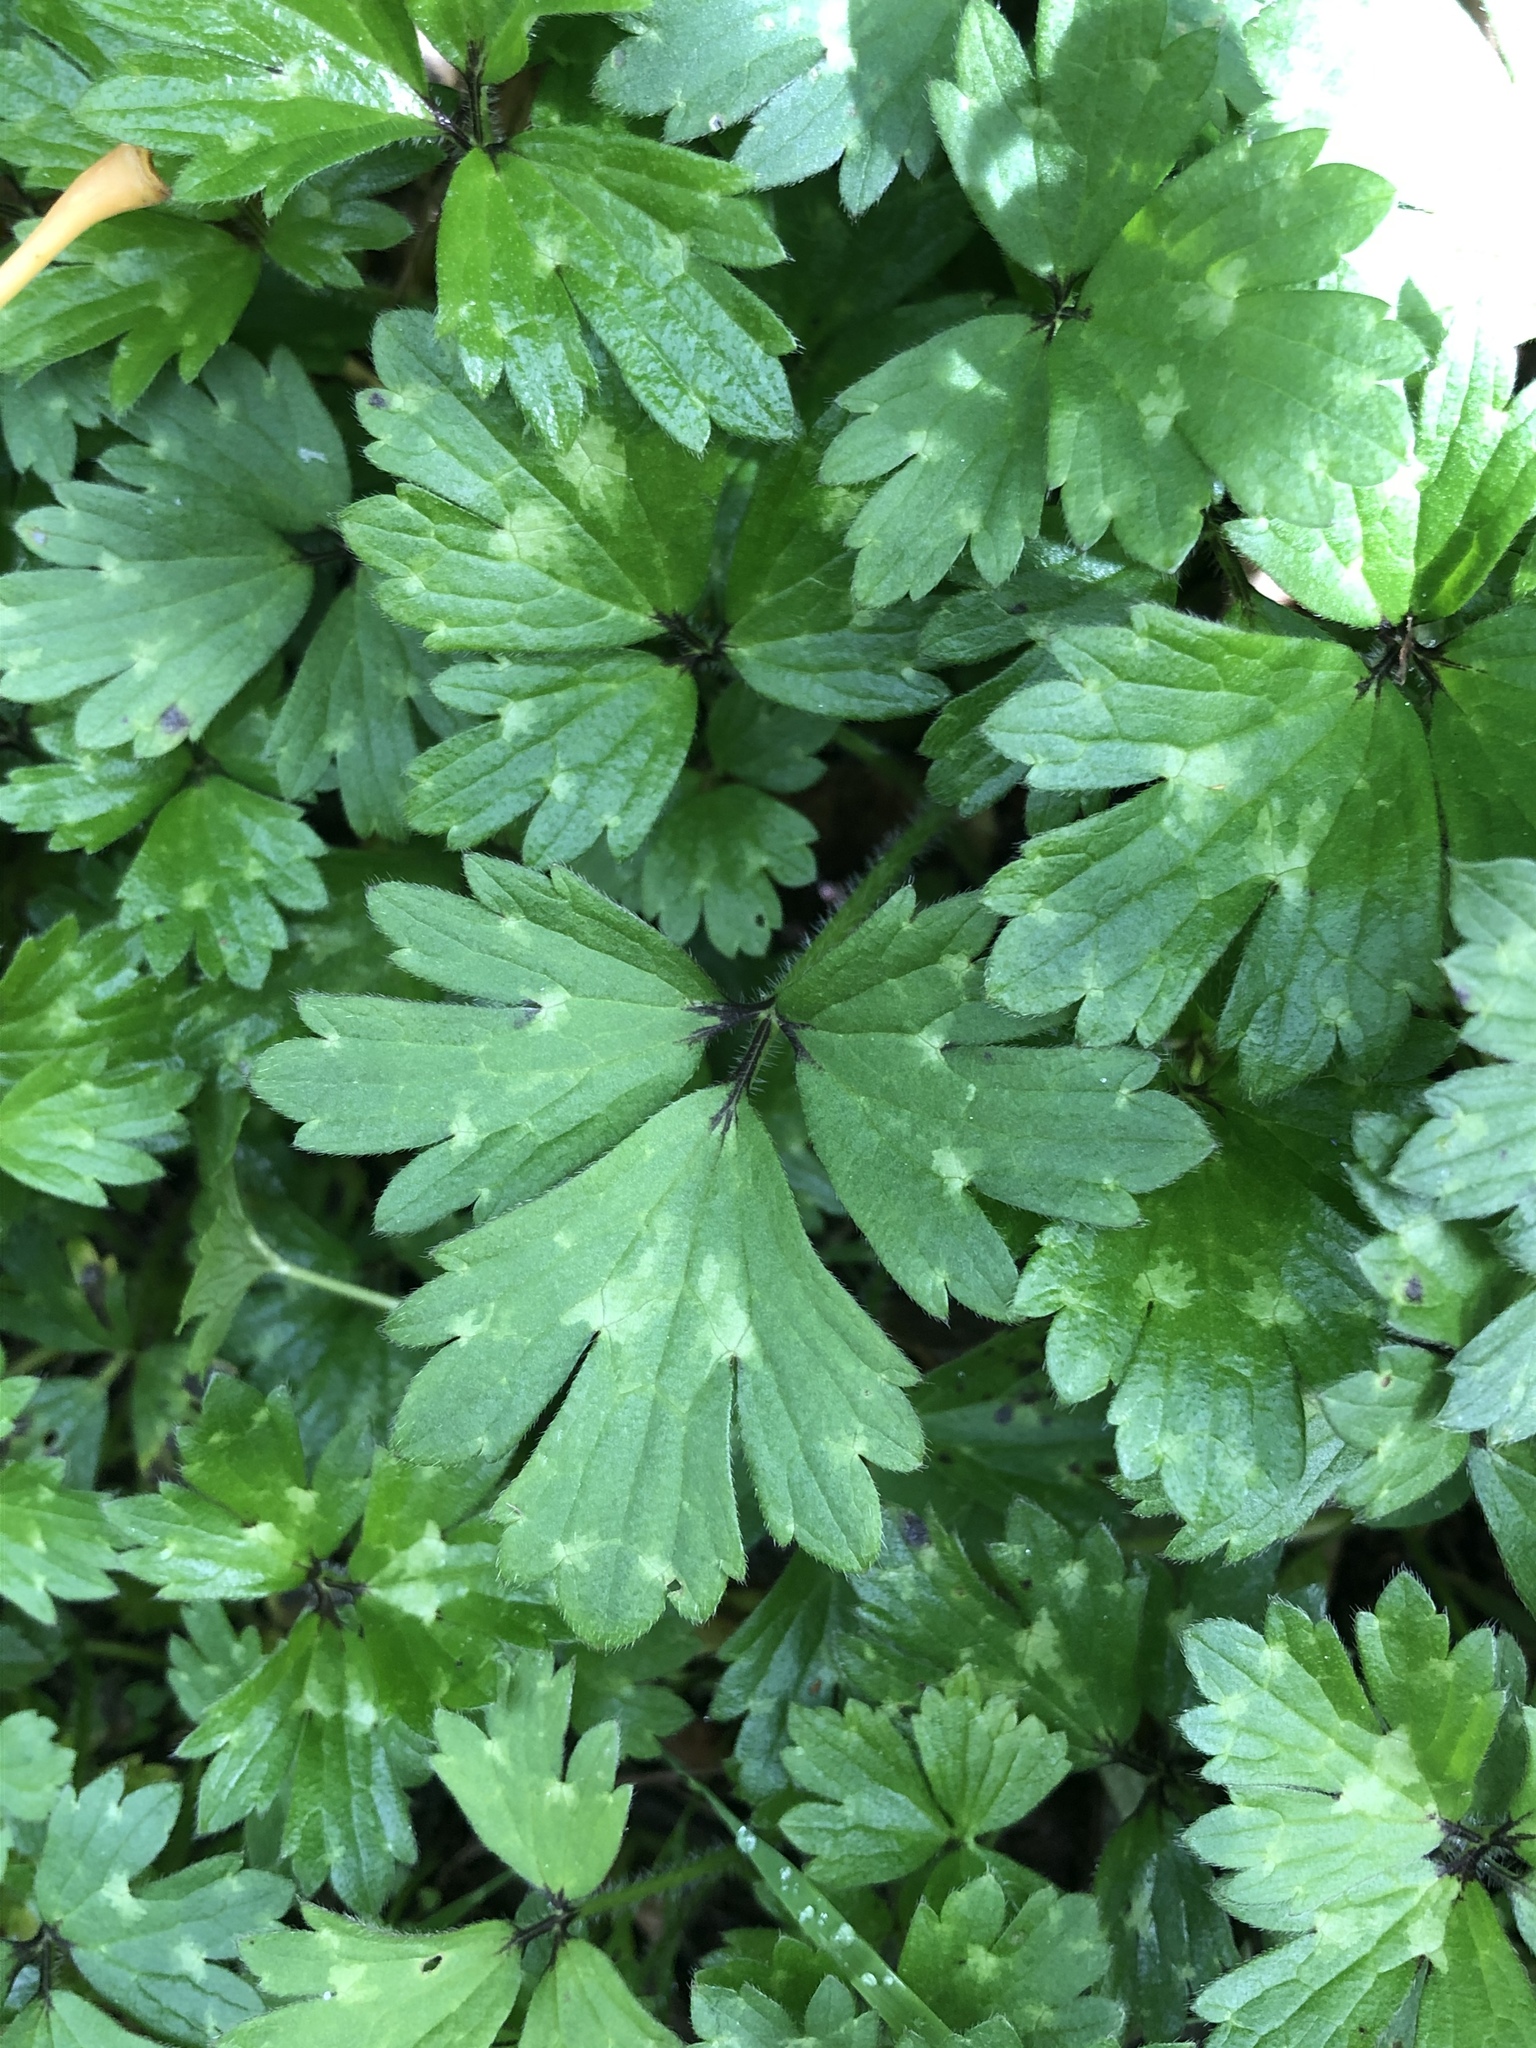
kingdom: Plantae
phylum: Tracheophyta
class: Magnoliopsida
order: Ranunculales
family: Ranunculaceae
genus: Ranunculus
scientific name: Ranunculus repens
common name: Creeping buttercup
